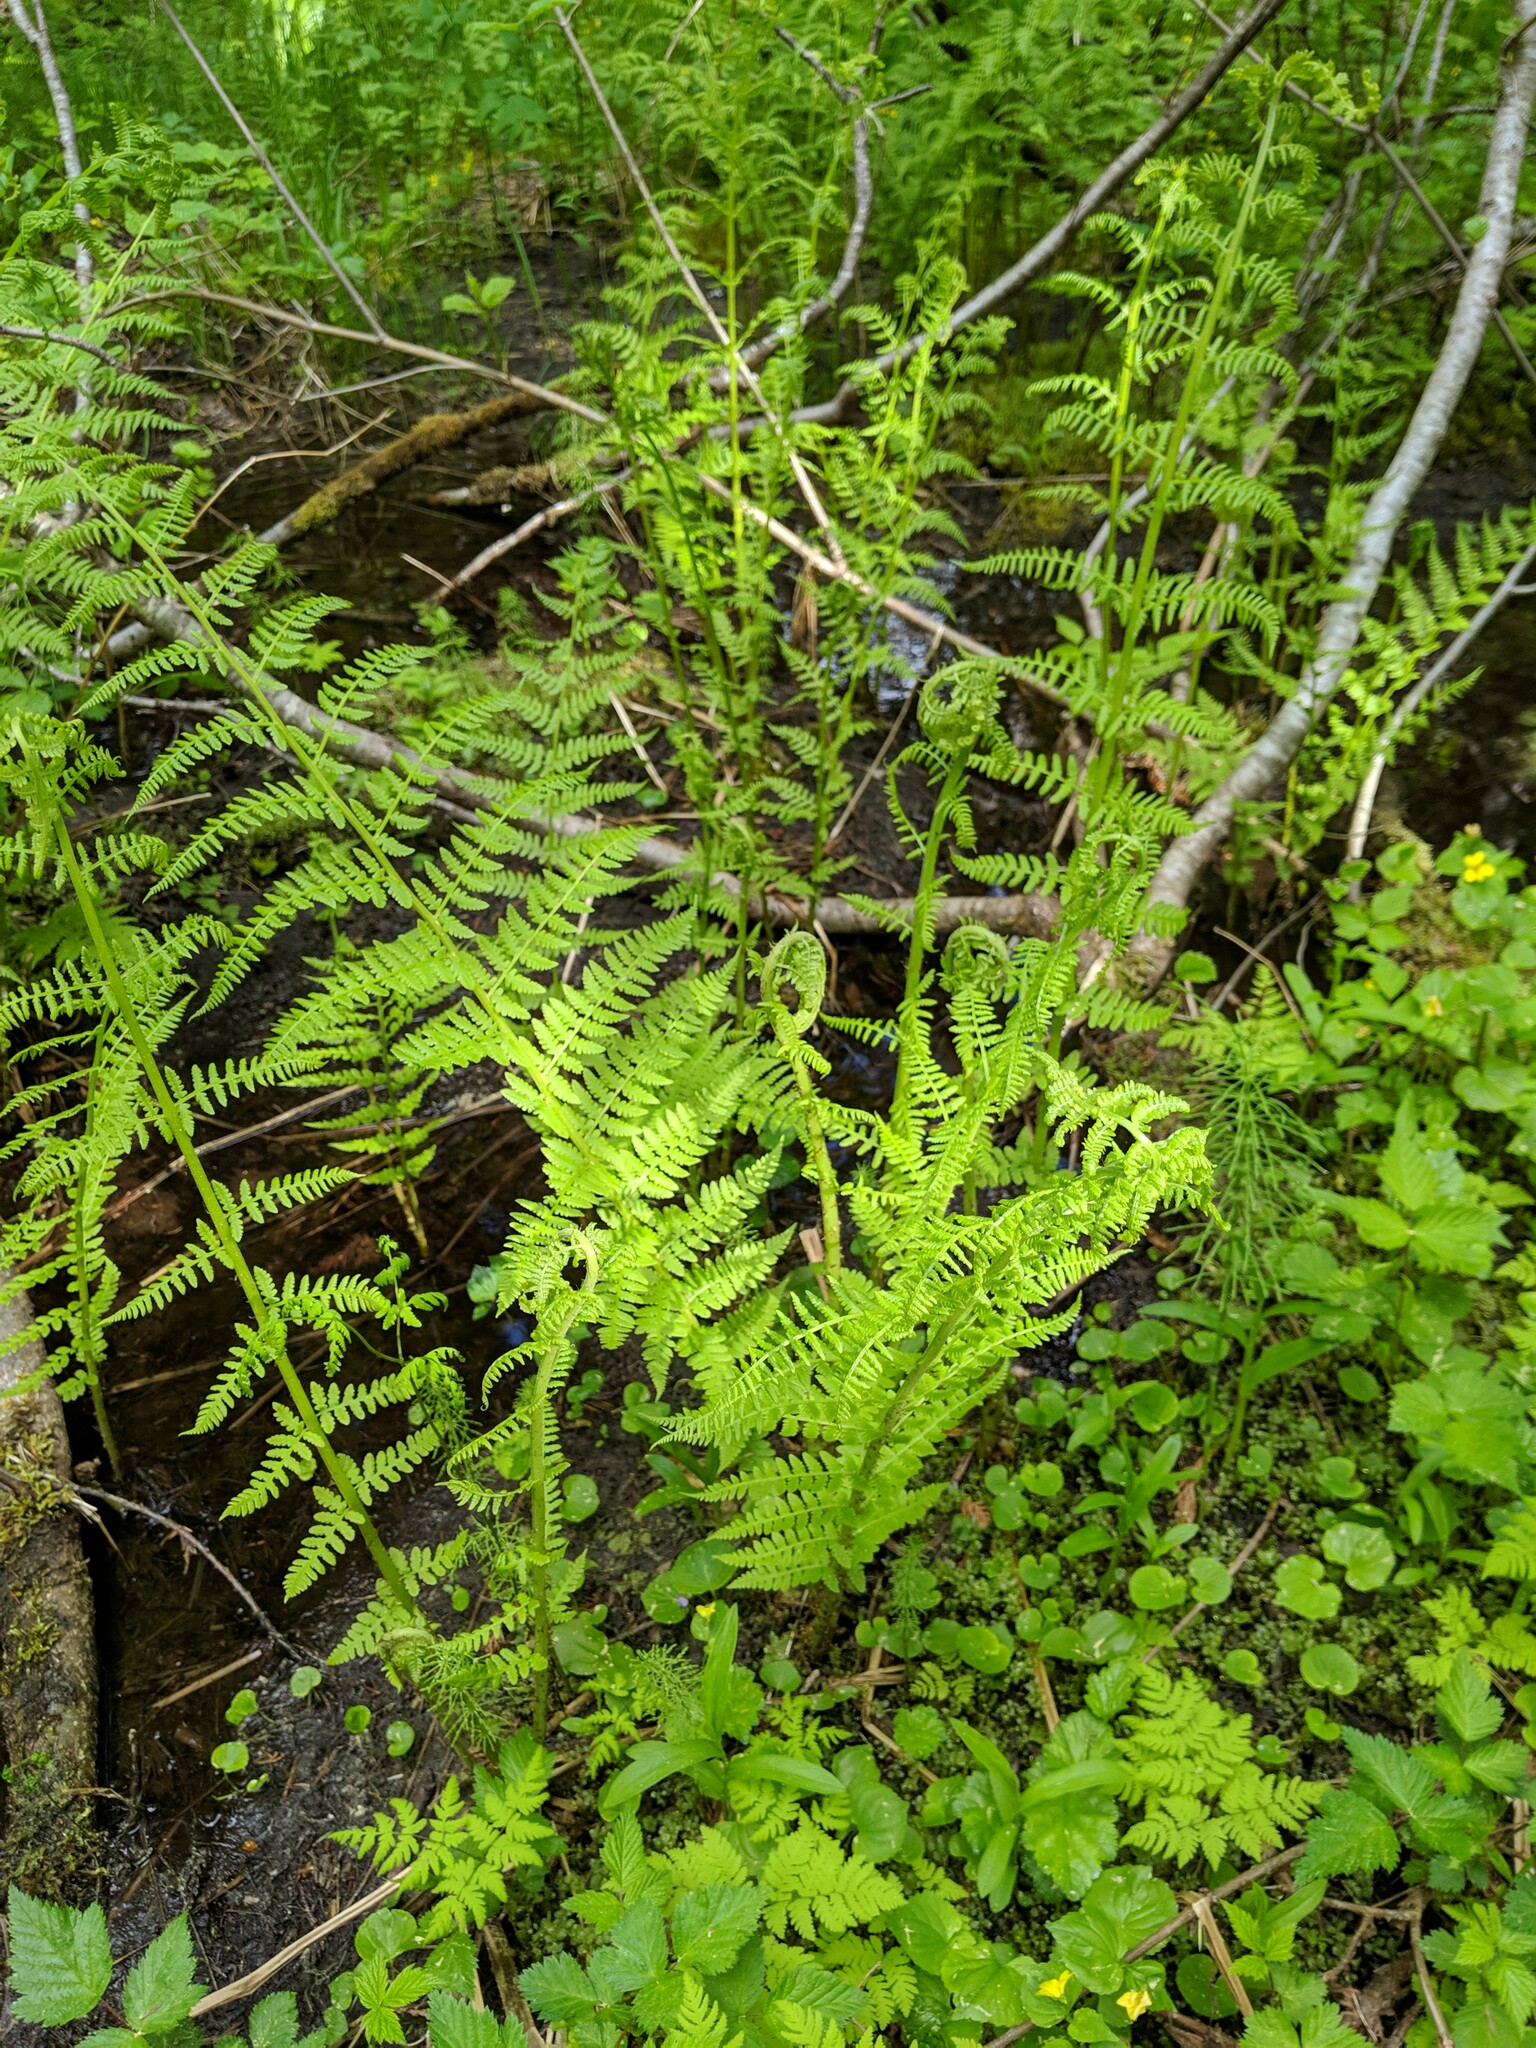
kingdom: Plantae
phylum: Tracheophyta
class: Polypodiopsida
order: Polypodiales
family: Athyriaceae
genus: Athyrium
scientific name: Athyrium cyclosorum
